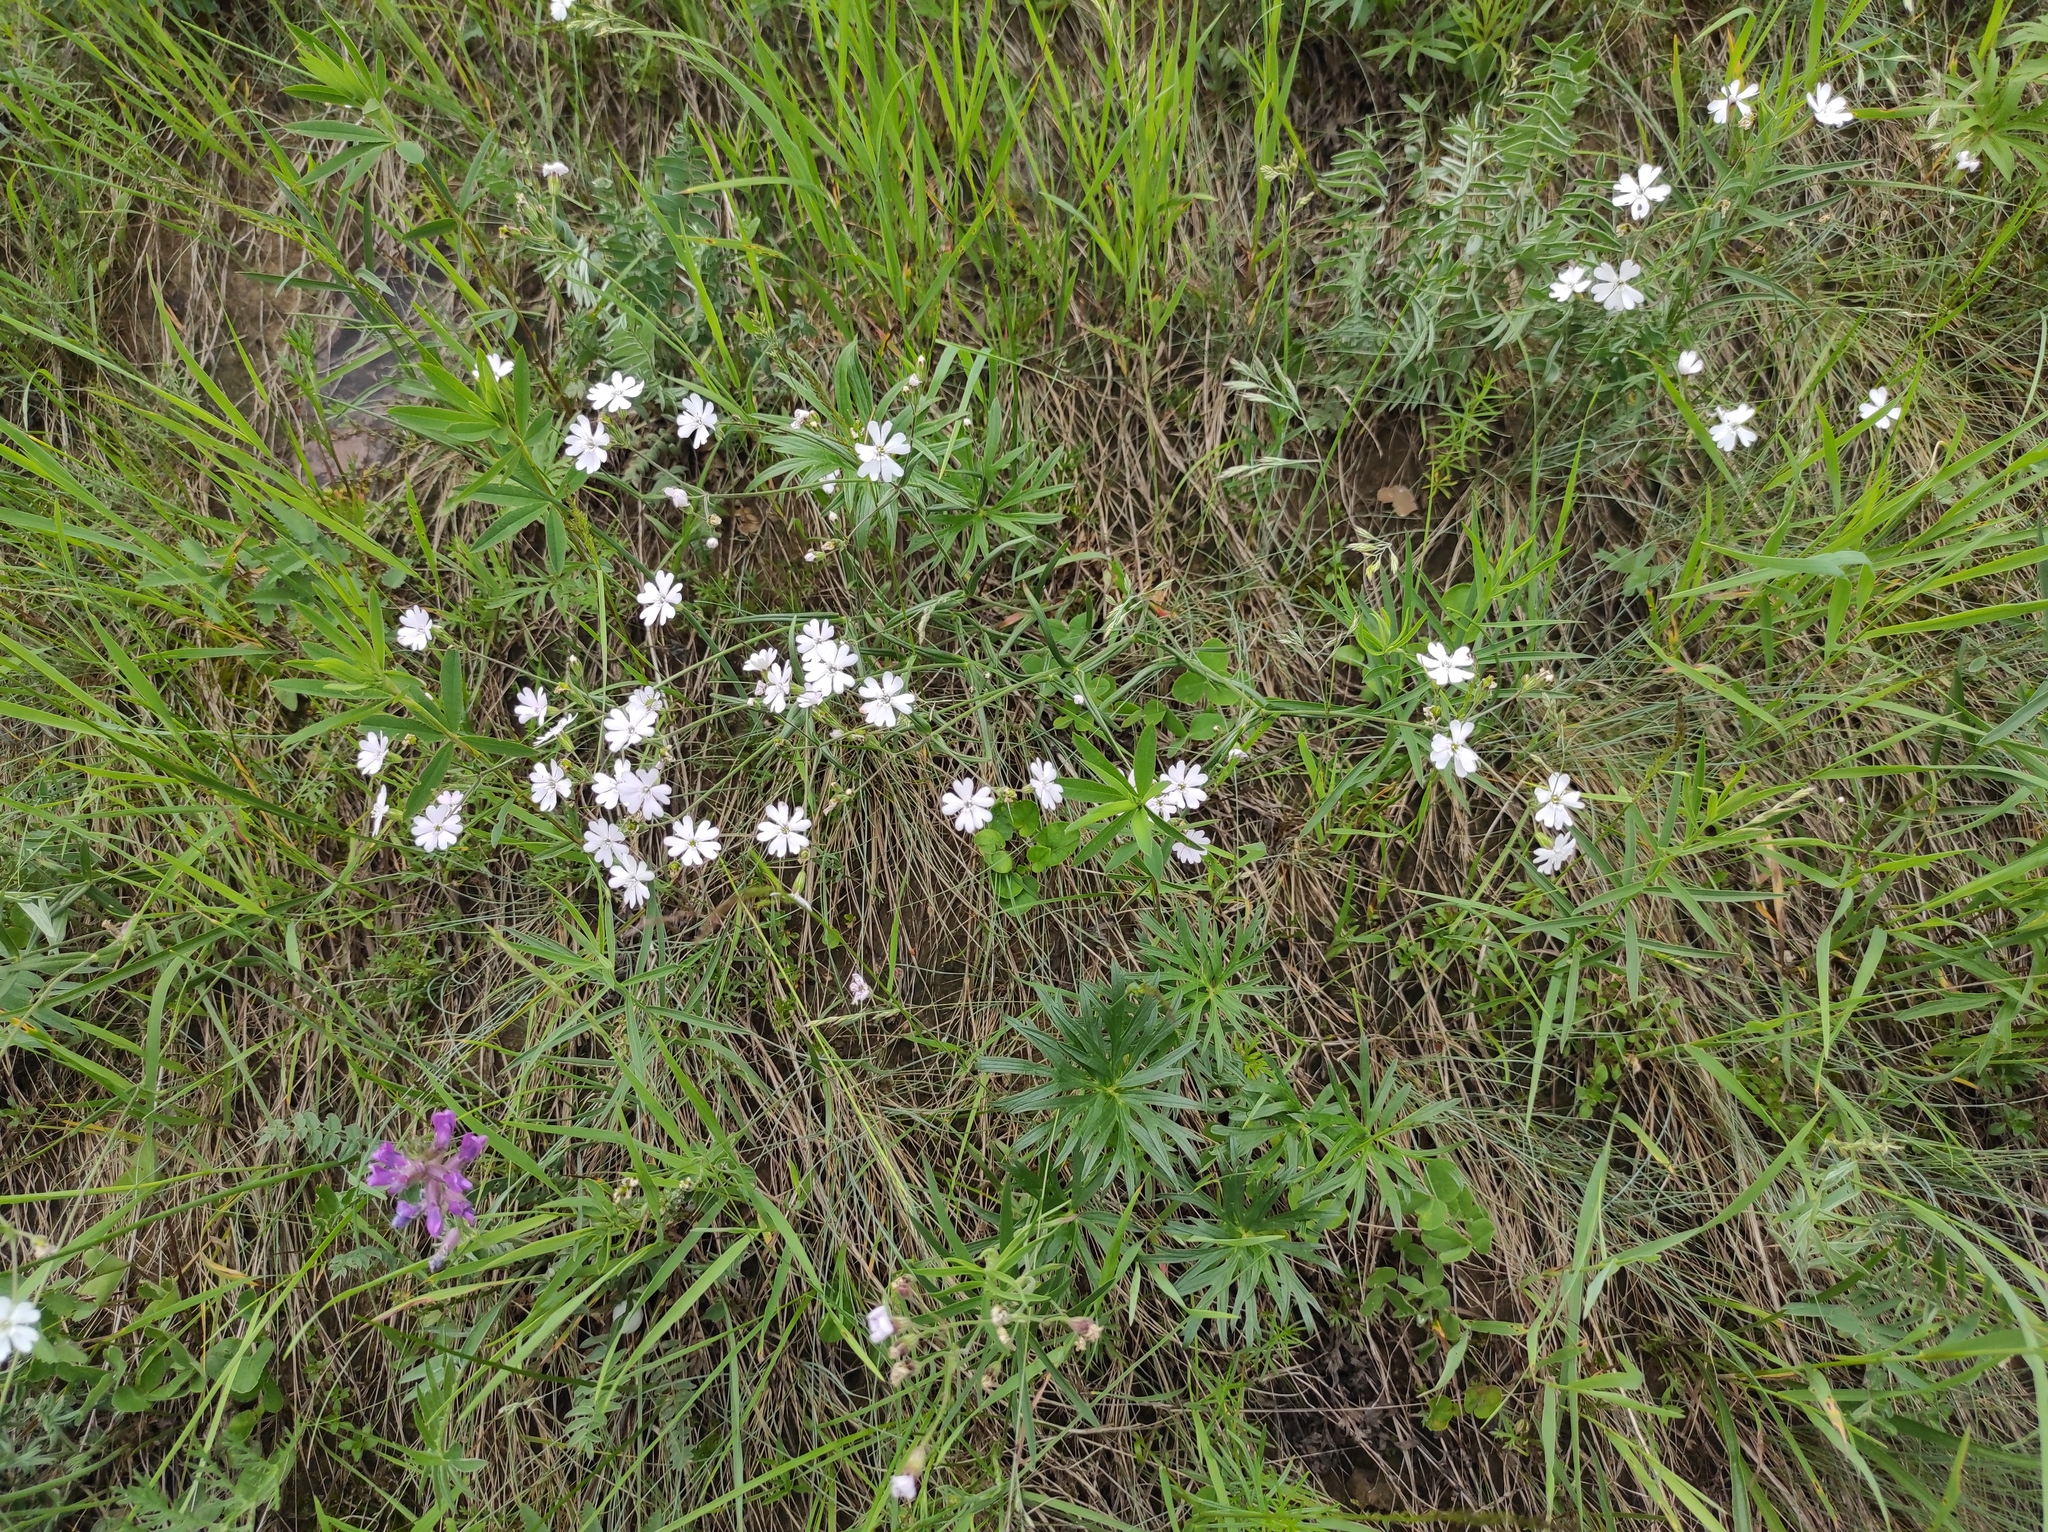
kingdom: Plantae
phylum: Tracheophyta
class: Magnoliopsida
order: Caryophyllales
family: Caryophyllaceae
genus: Silene
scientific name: Silene orientalimongolica
